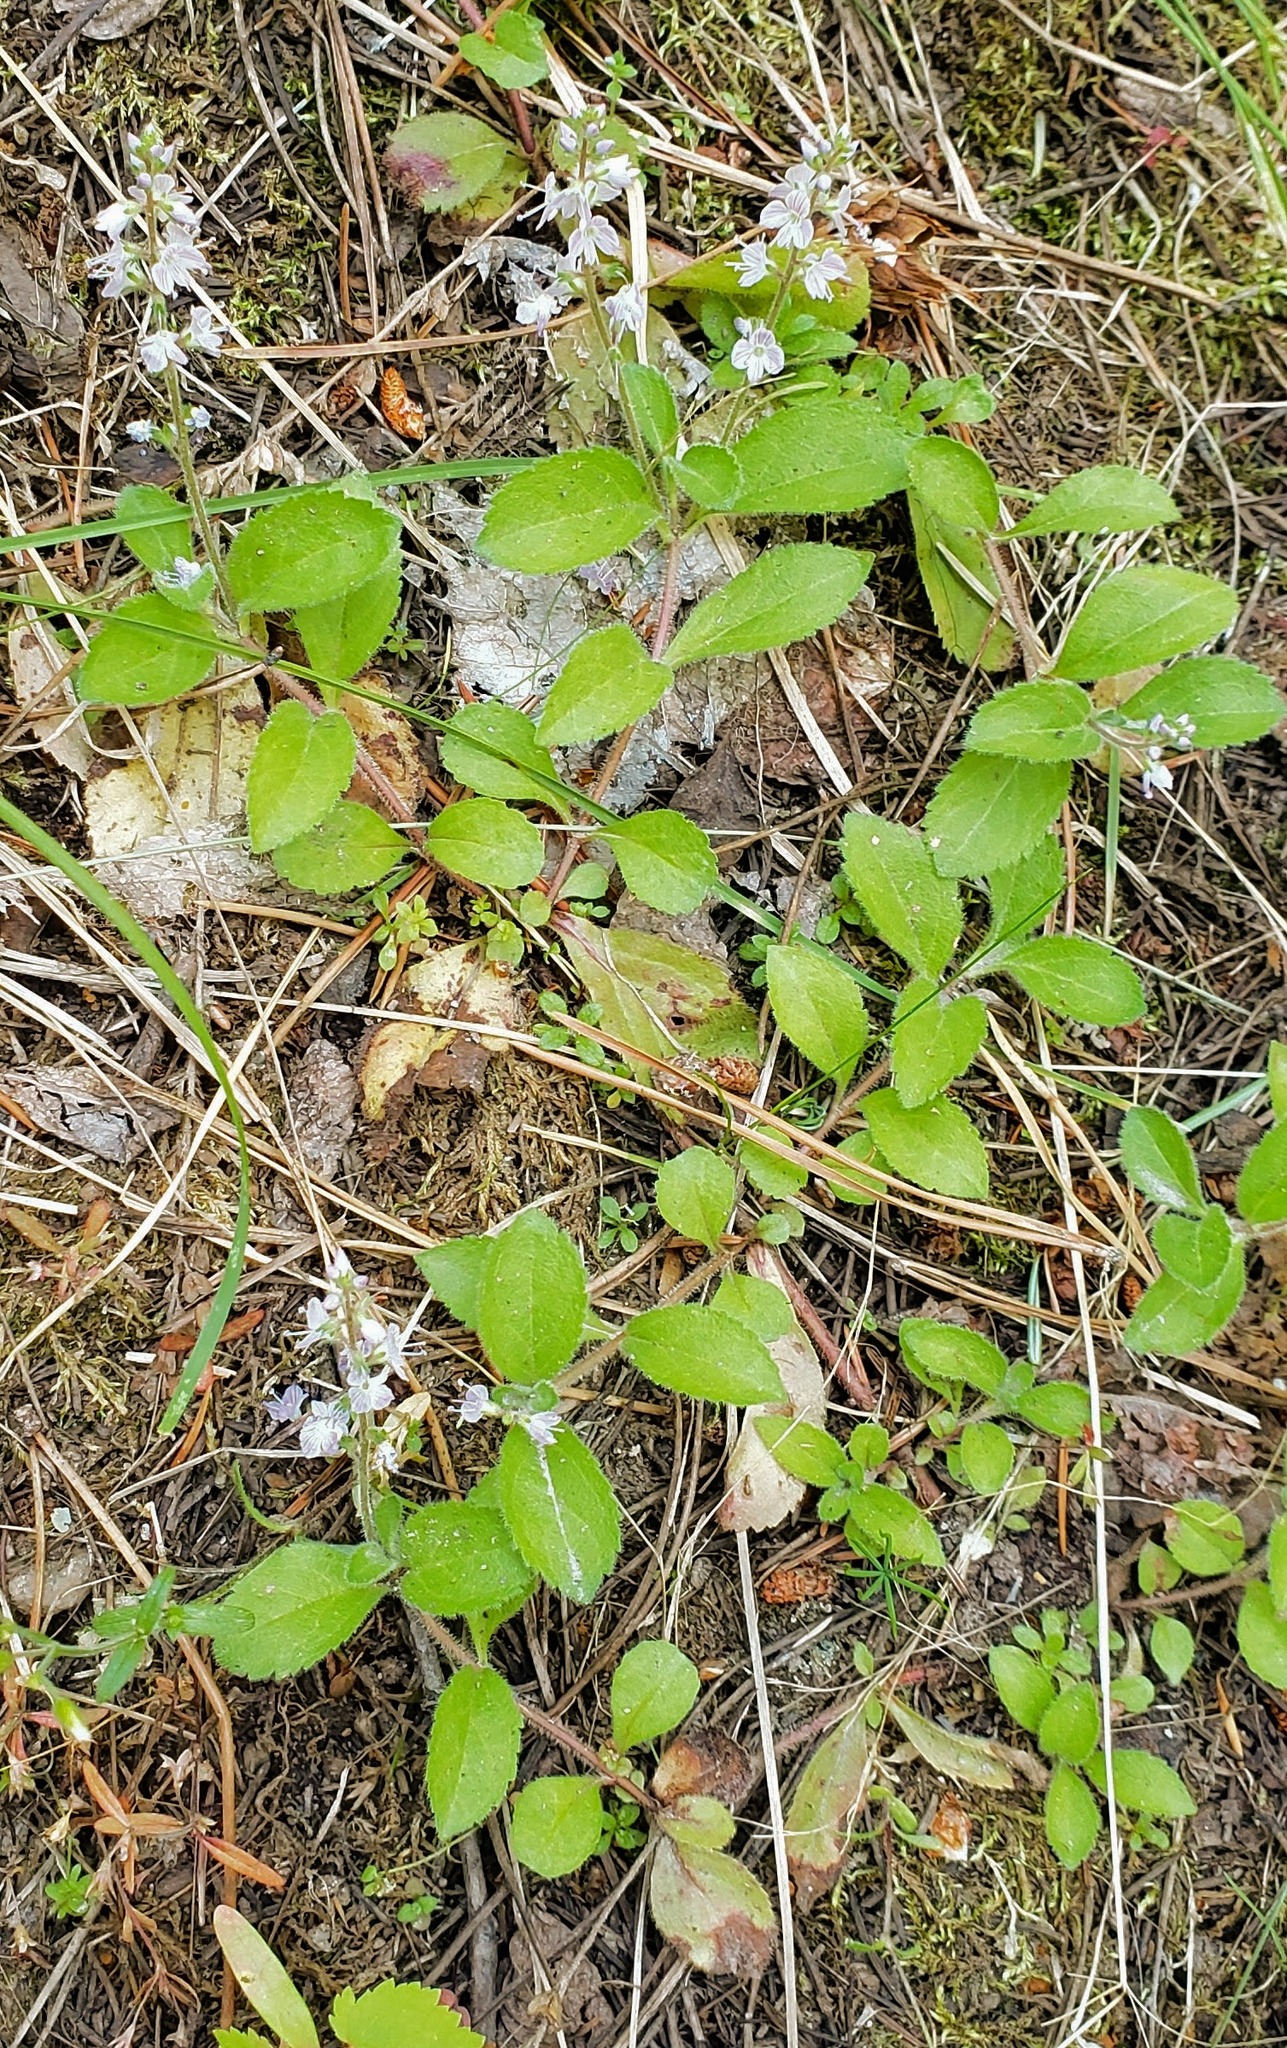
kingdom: Plantae
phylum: Tracheophyta
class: Magnoliopsida
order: Lamiales
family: Plantaginaceae
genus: Veronica
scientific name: Veronica officinalis
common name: Common speedwell
